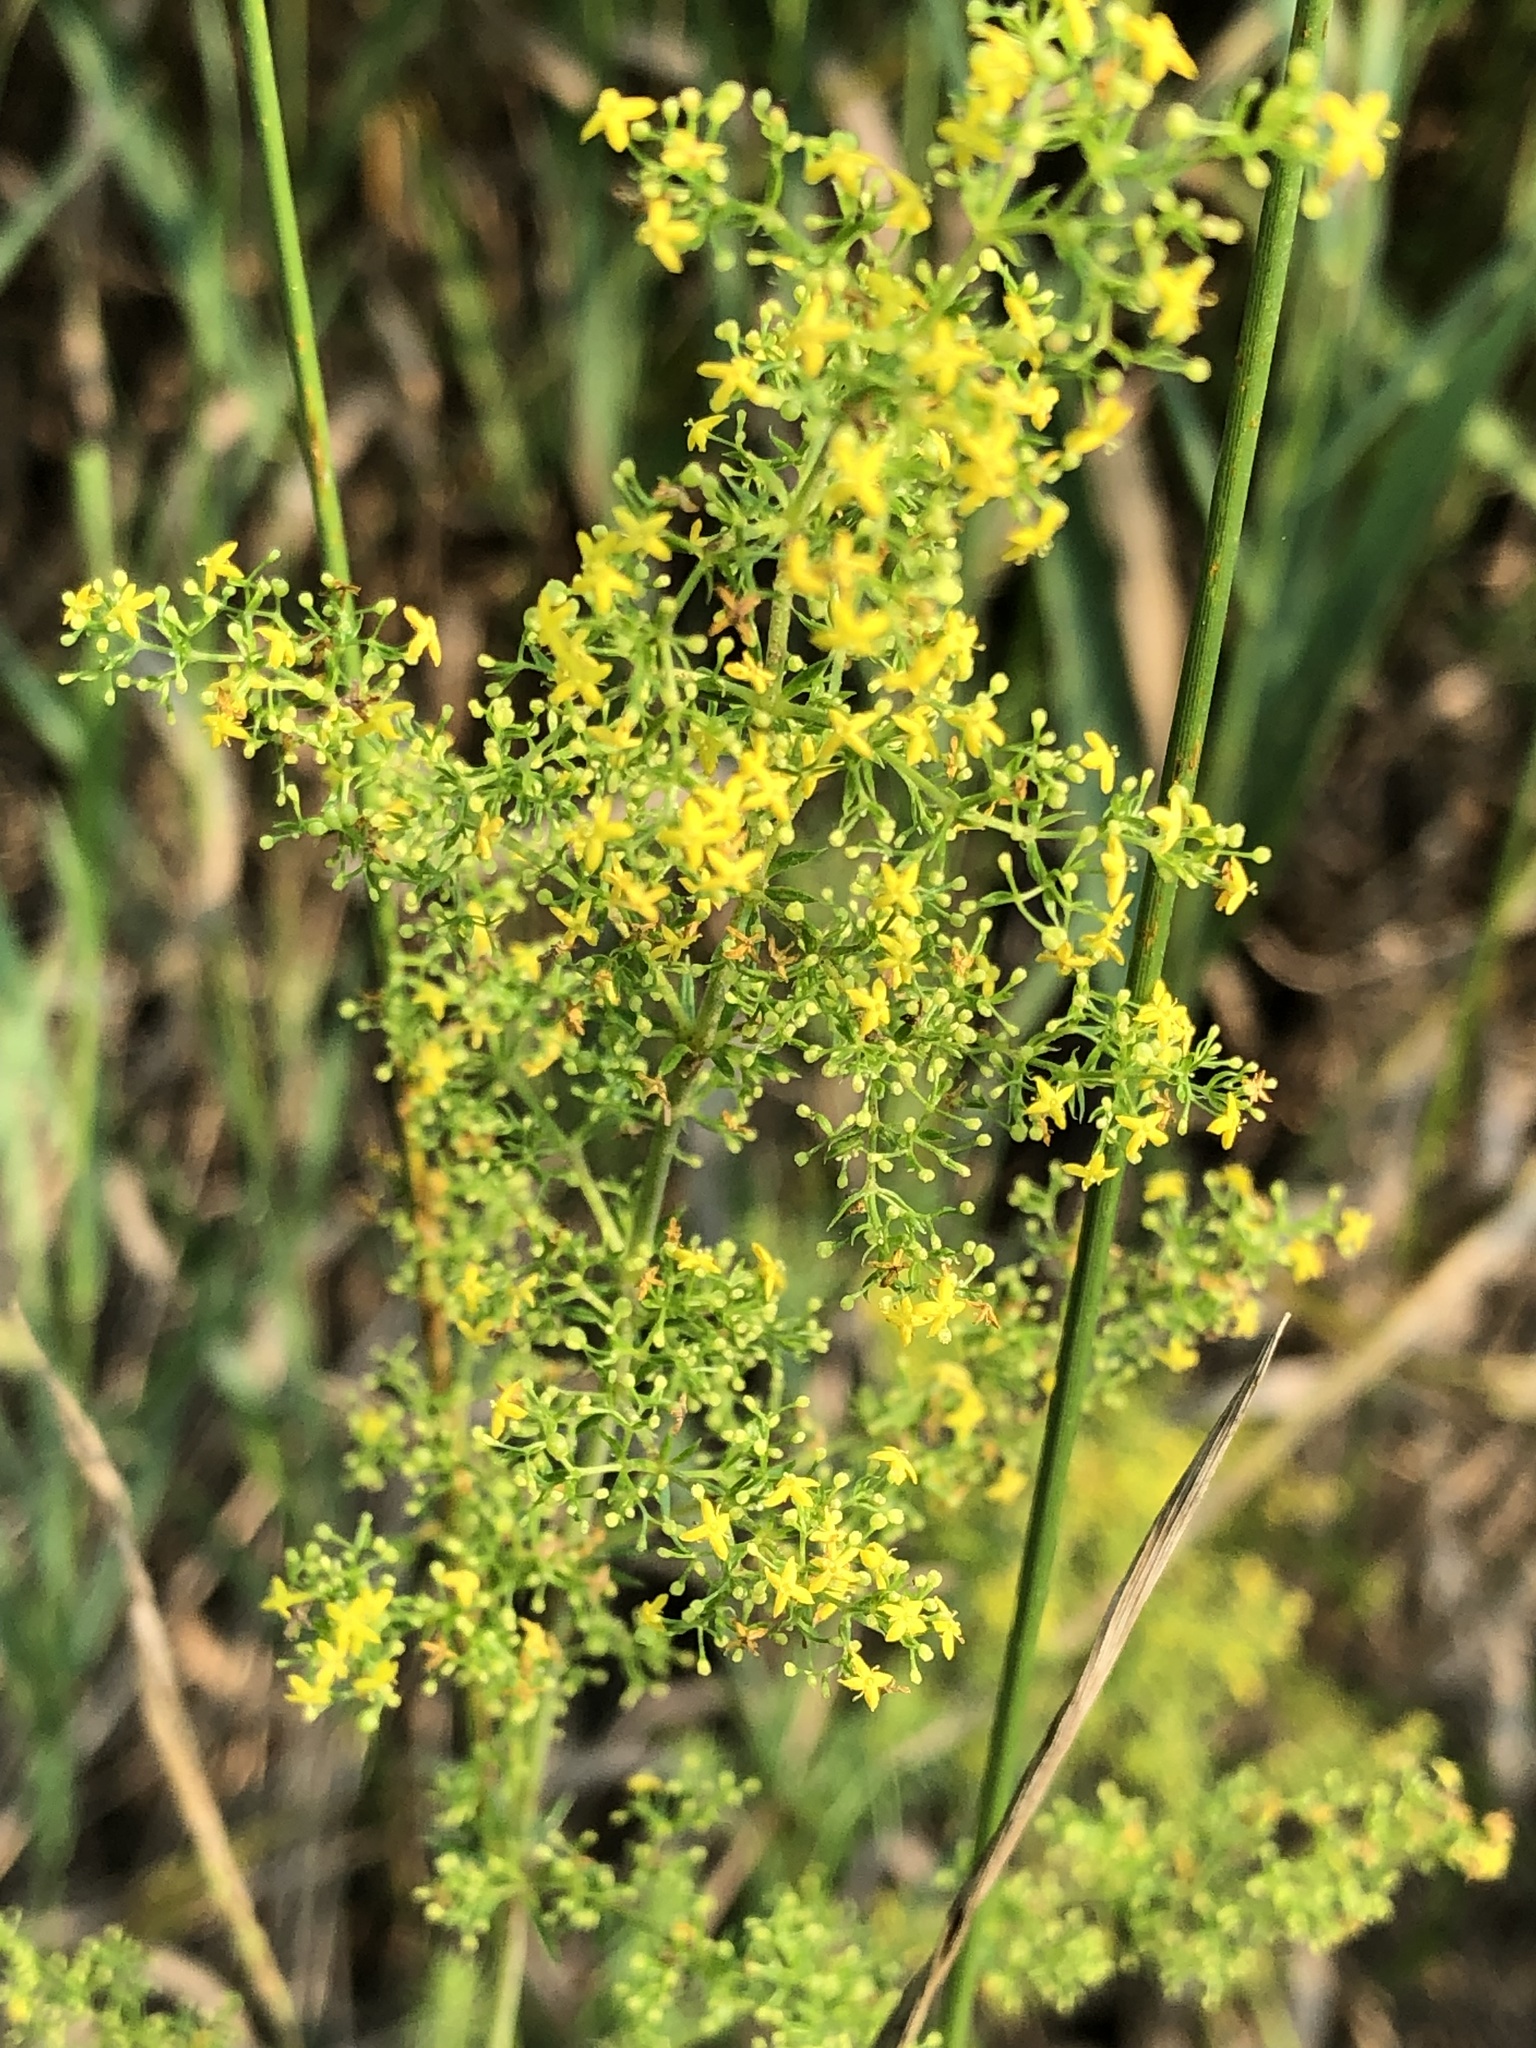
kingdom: Plantae
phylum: Tracheophyta
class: Magnoliopsida
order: Gentianales
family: Rubiaceae
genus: Galium
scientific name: Galium verum
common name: Lady's bedstraw
